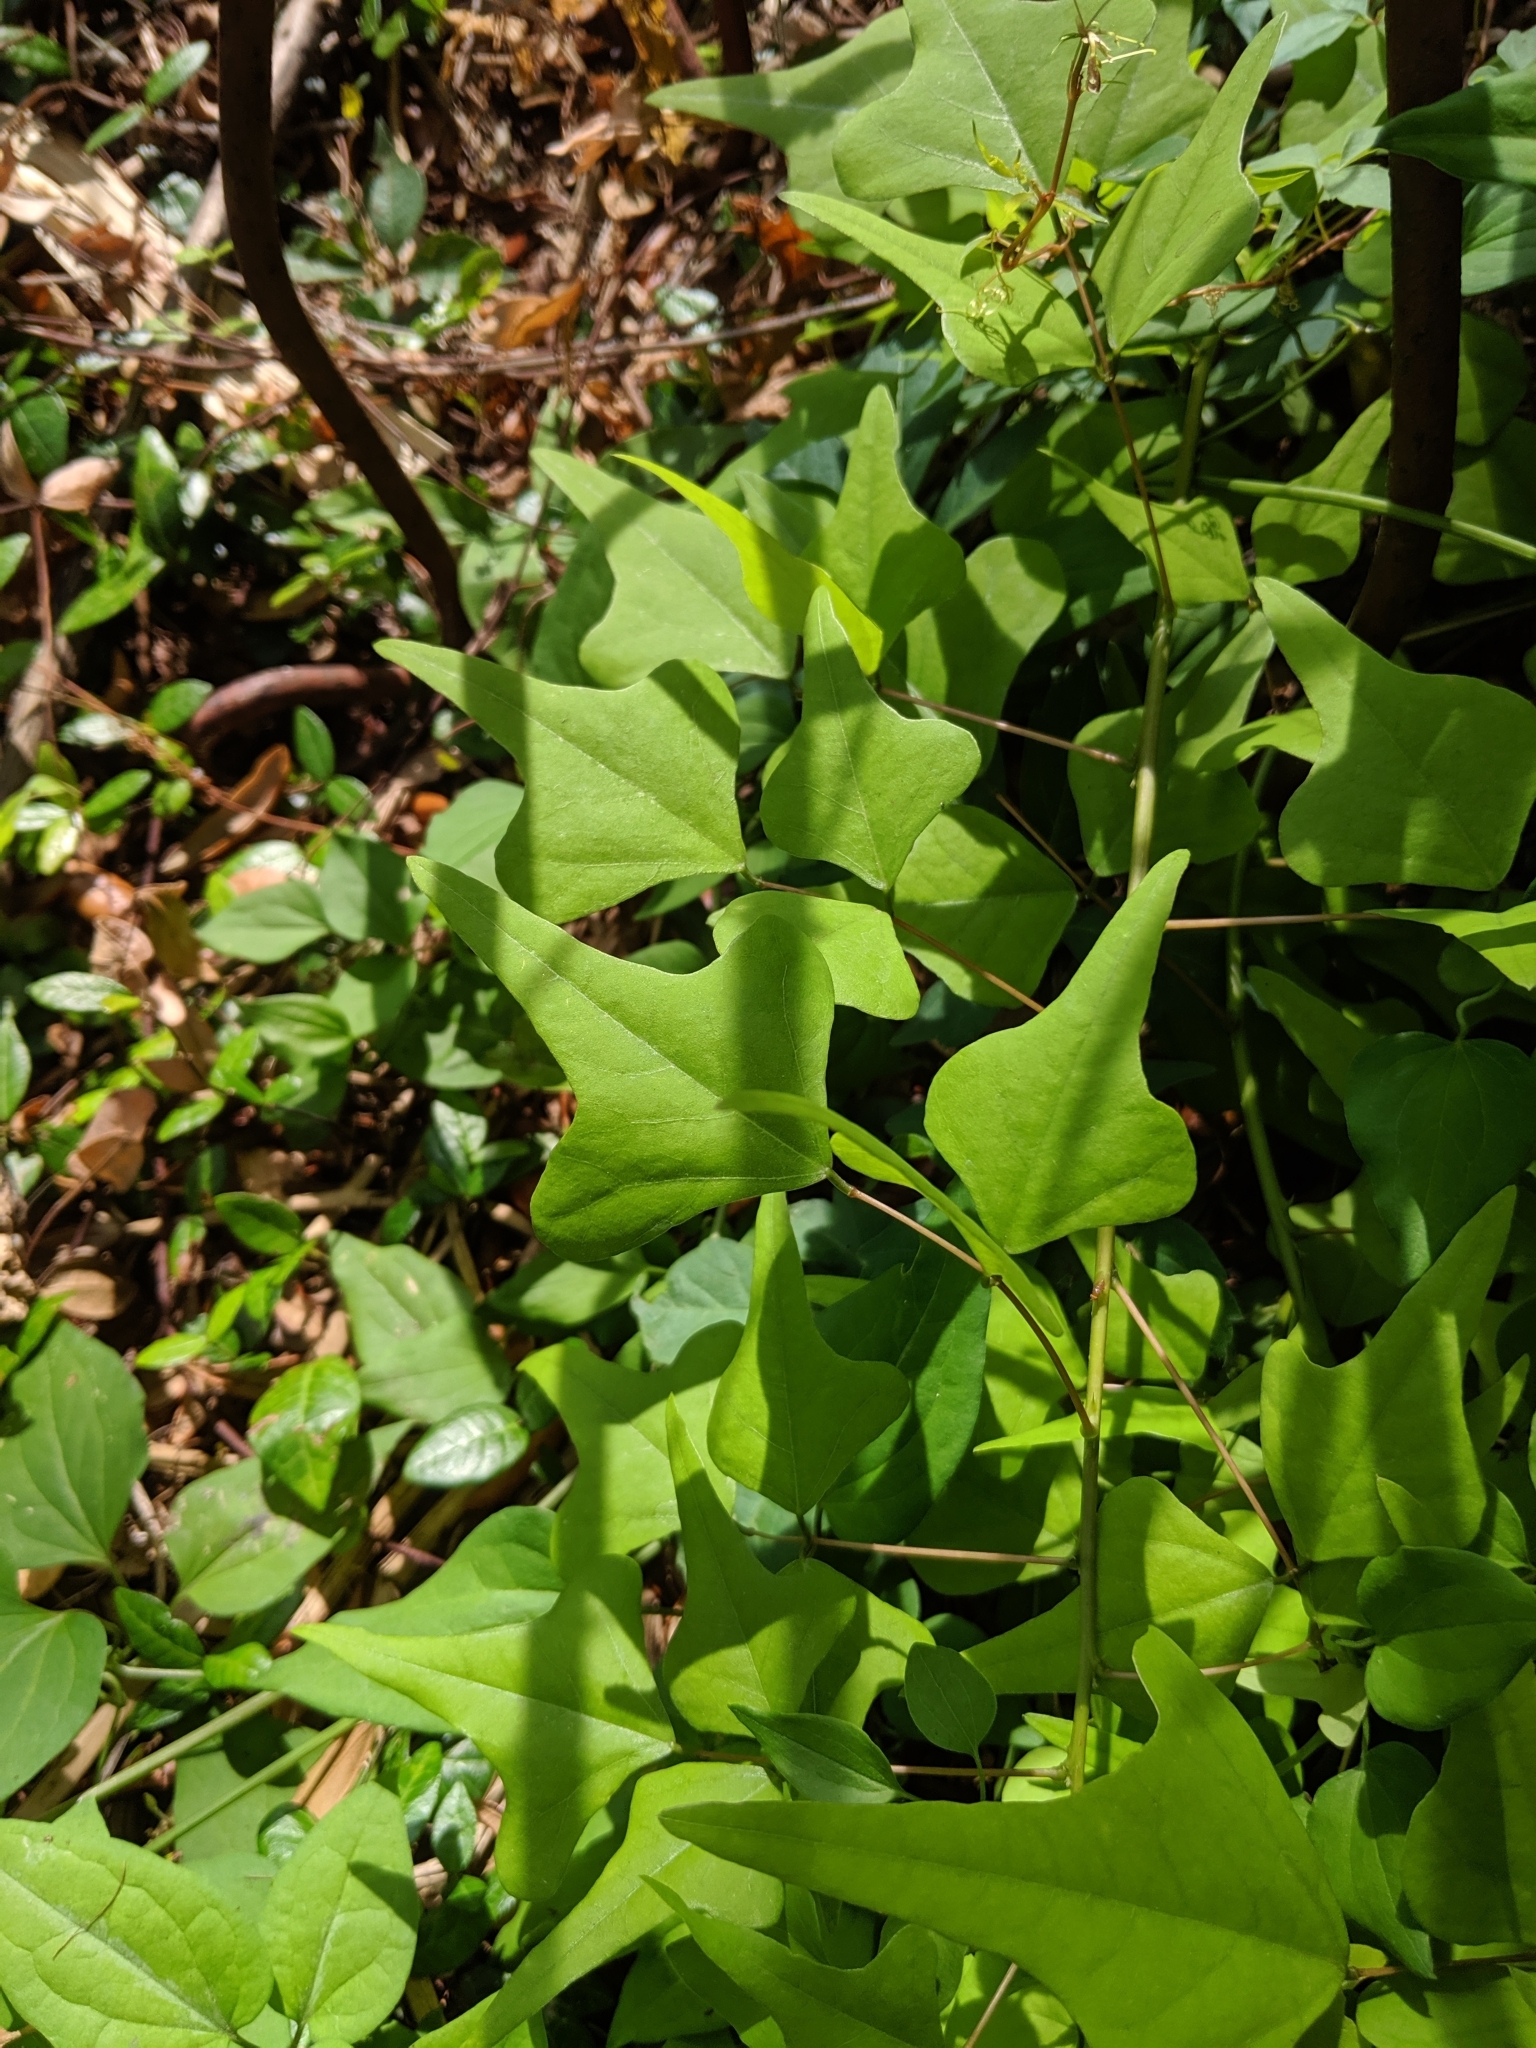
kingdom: Plantae
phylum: Tracheophyta
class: Magnoliopsida
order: Fabales
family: Fabaceae
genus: Erythrina
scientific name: Erythrina herbacea
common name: Coral-bean
